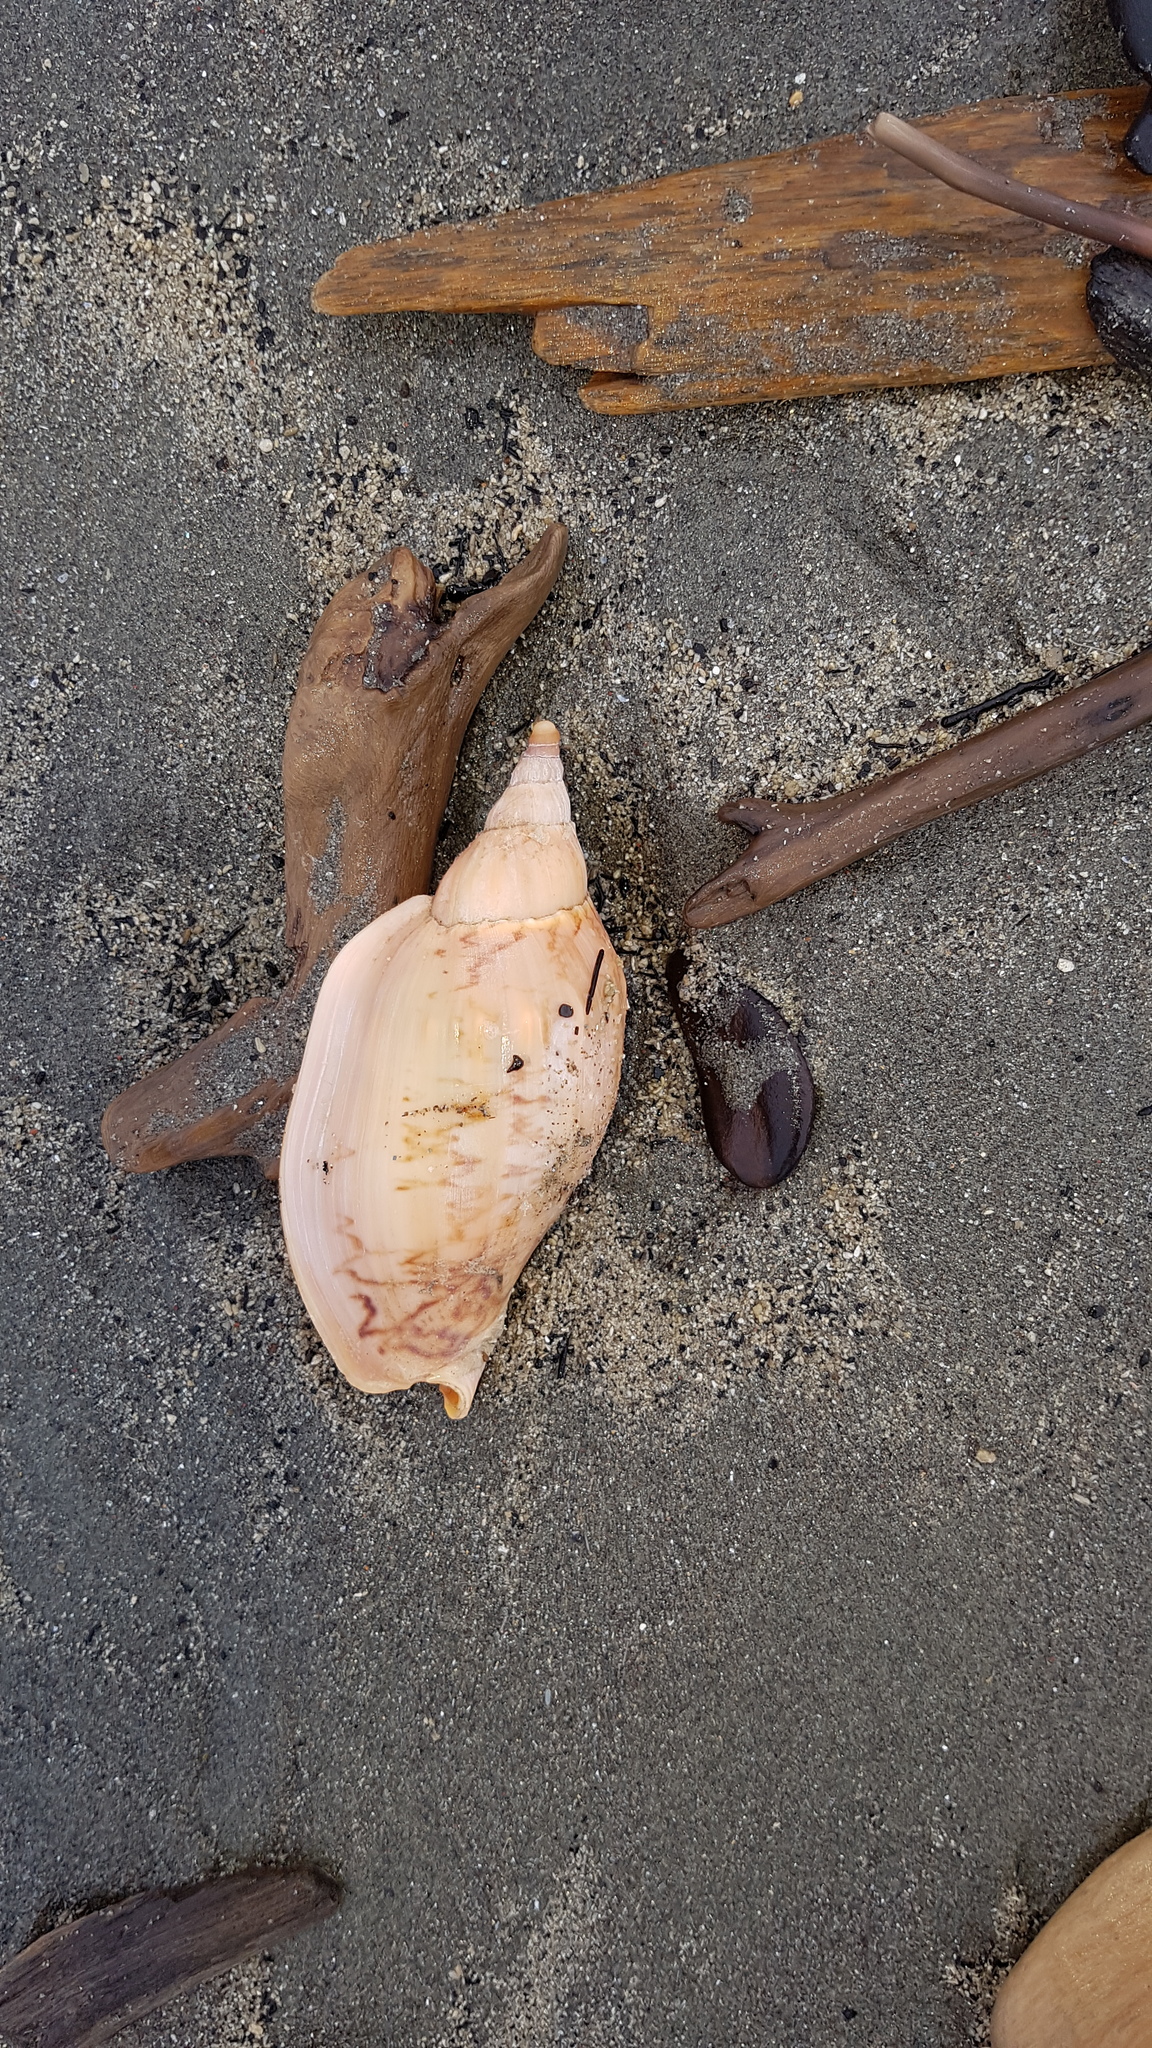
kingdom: Animalia
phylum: Mollusca
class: Gastropoda
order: Neogastropoda
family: Volutidae
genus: Alcithoe
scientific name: Alcithoe arabica
